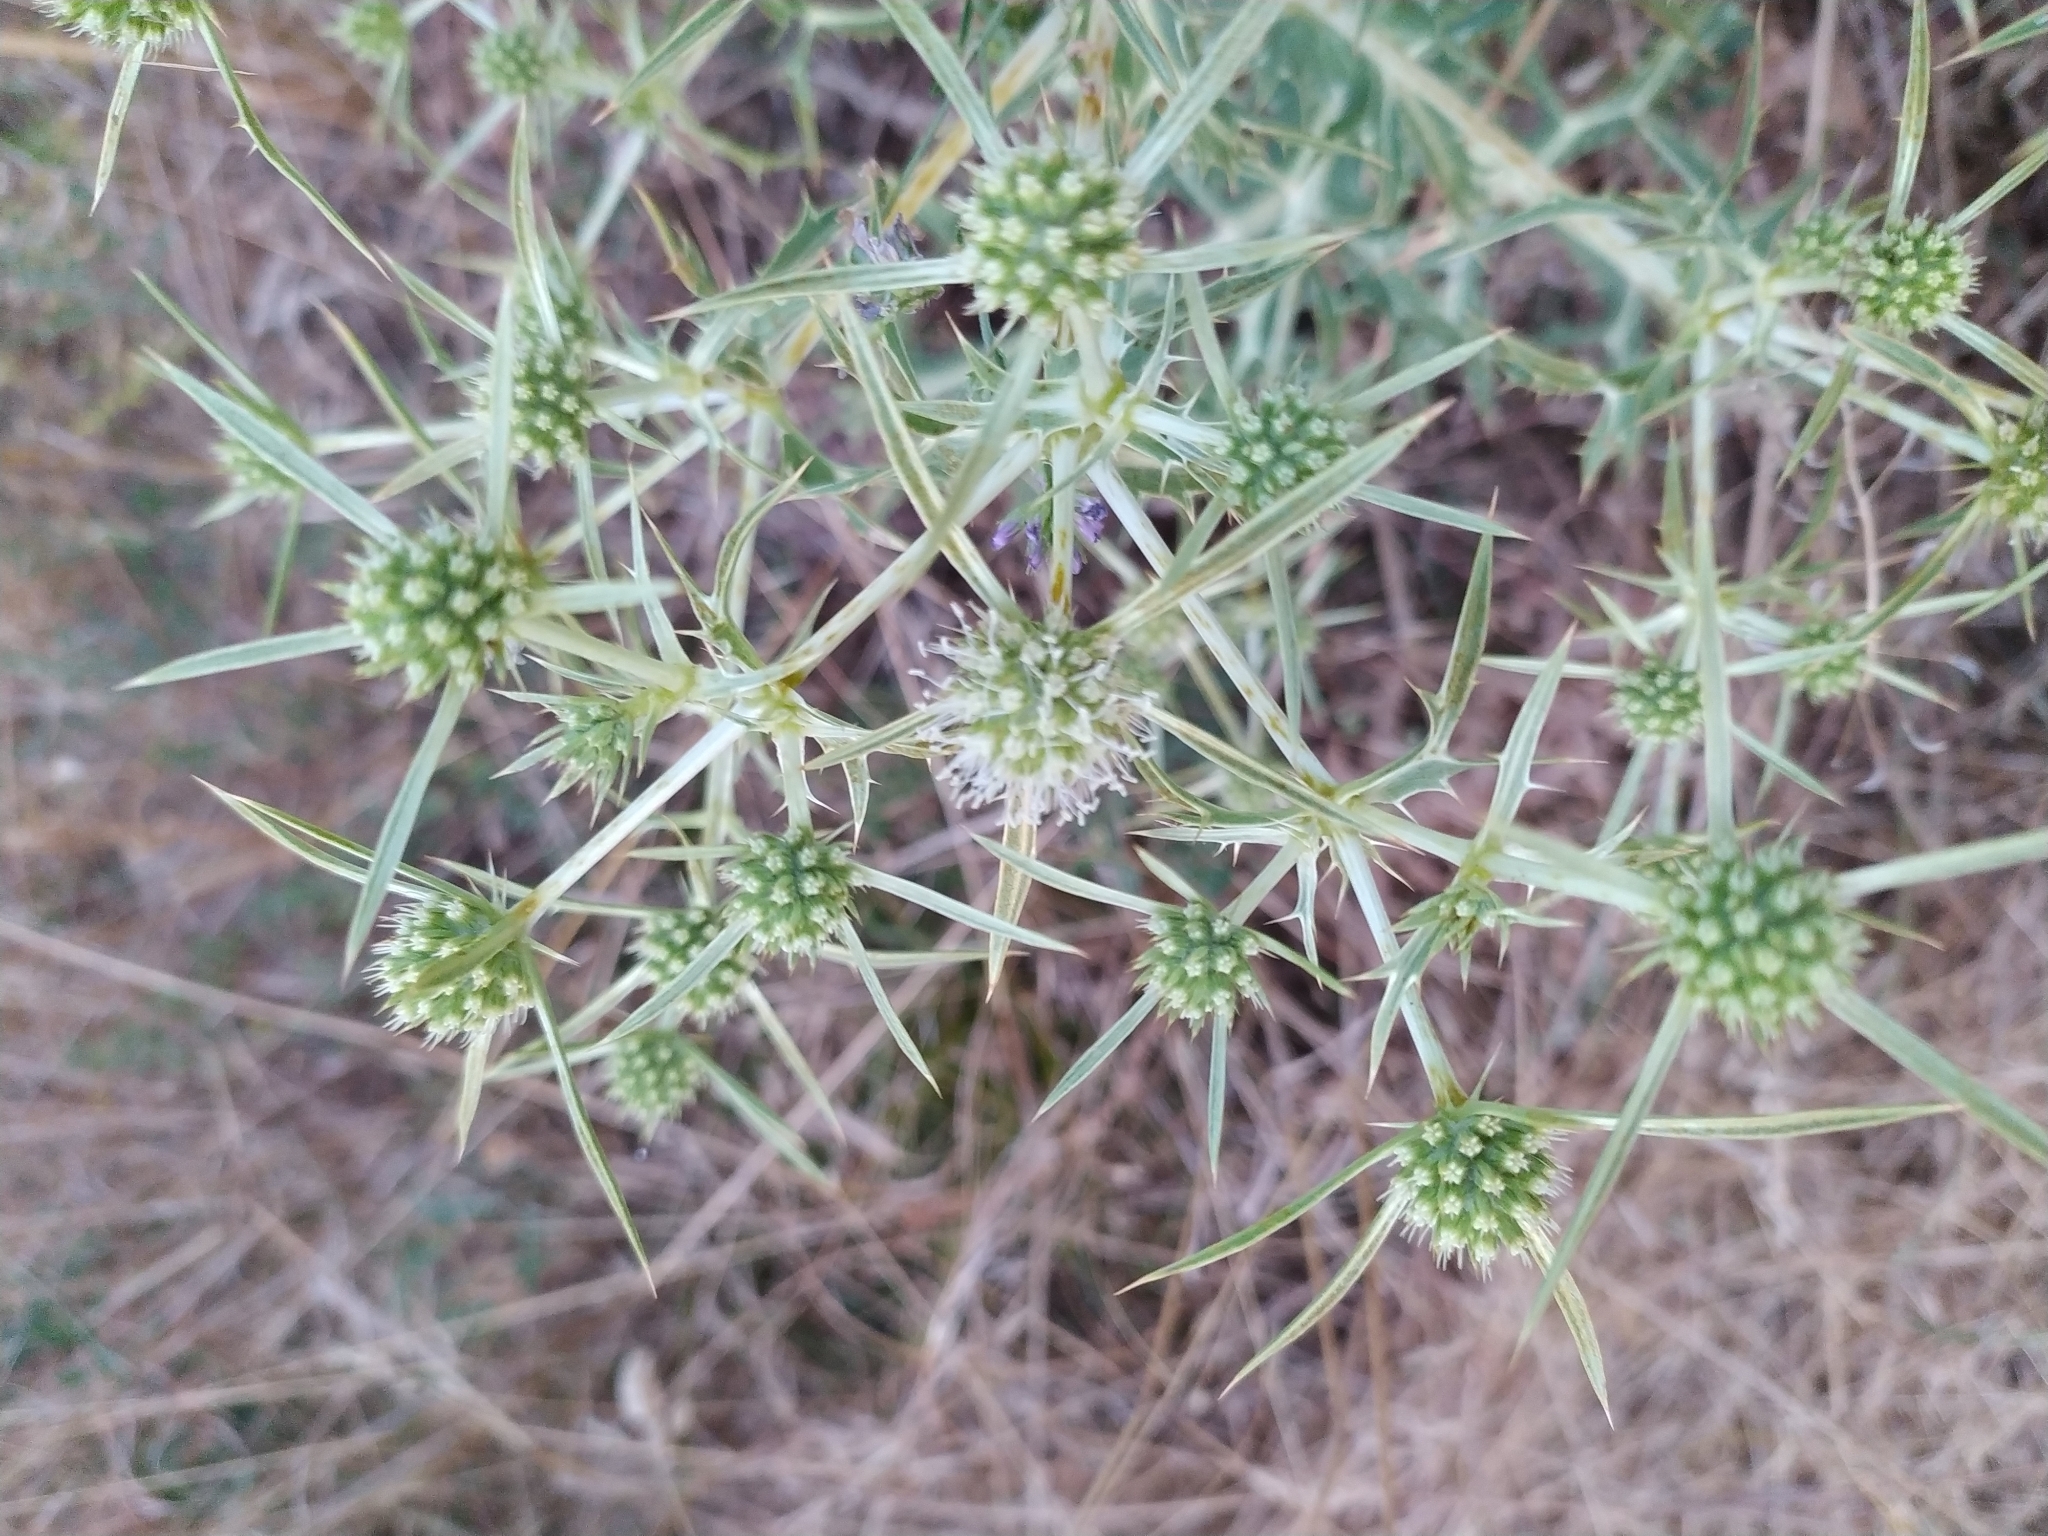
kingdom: Plantae
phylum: Tracheophyta
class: Magnoliopsida
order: Apiales
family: Apiaceae
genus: Eryngium
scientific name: Eryngium campestre
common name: Field eryngo
